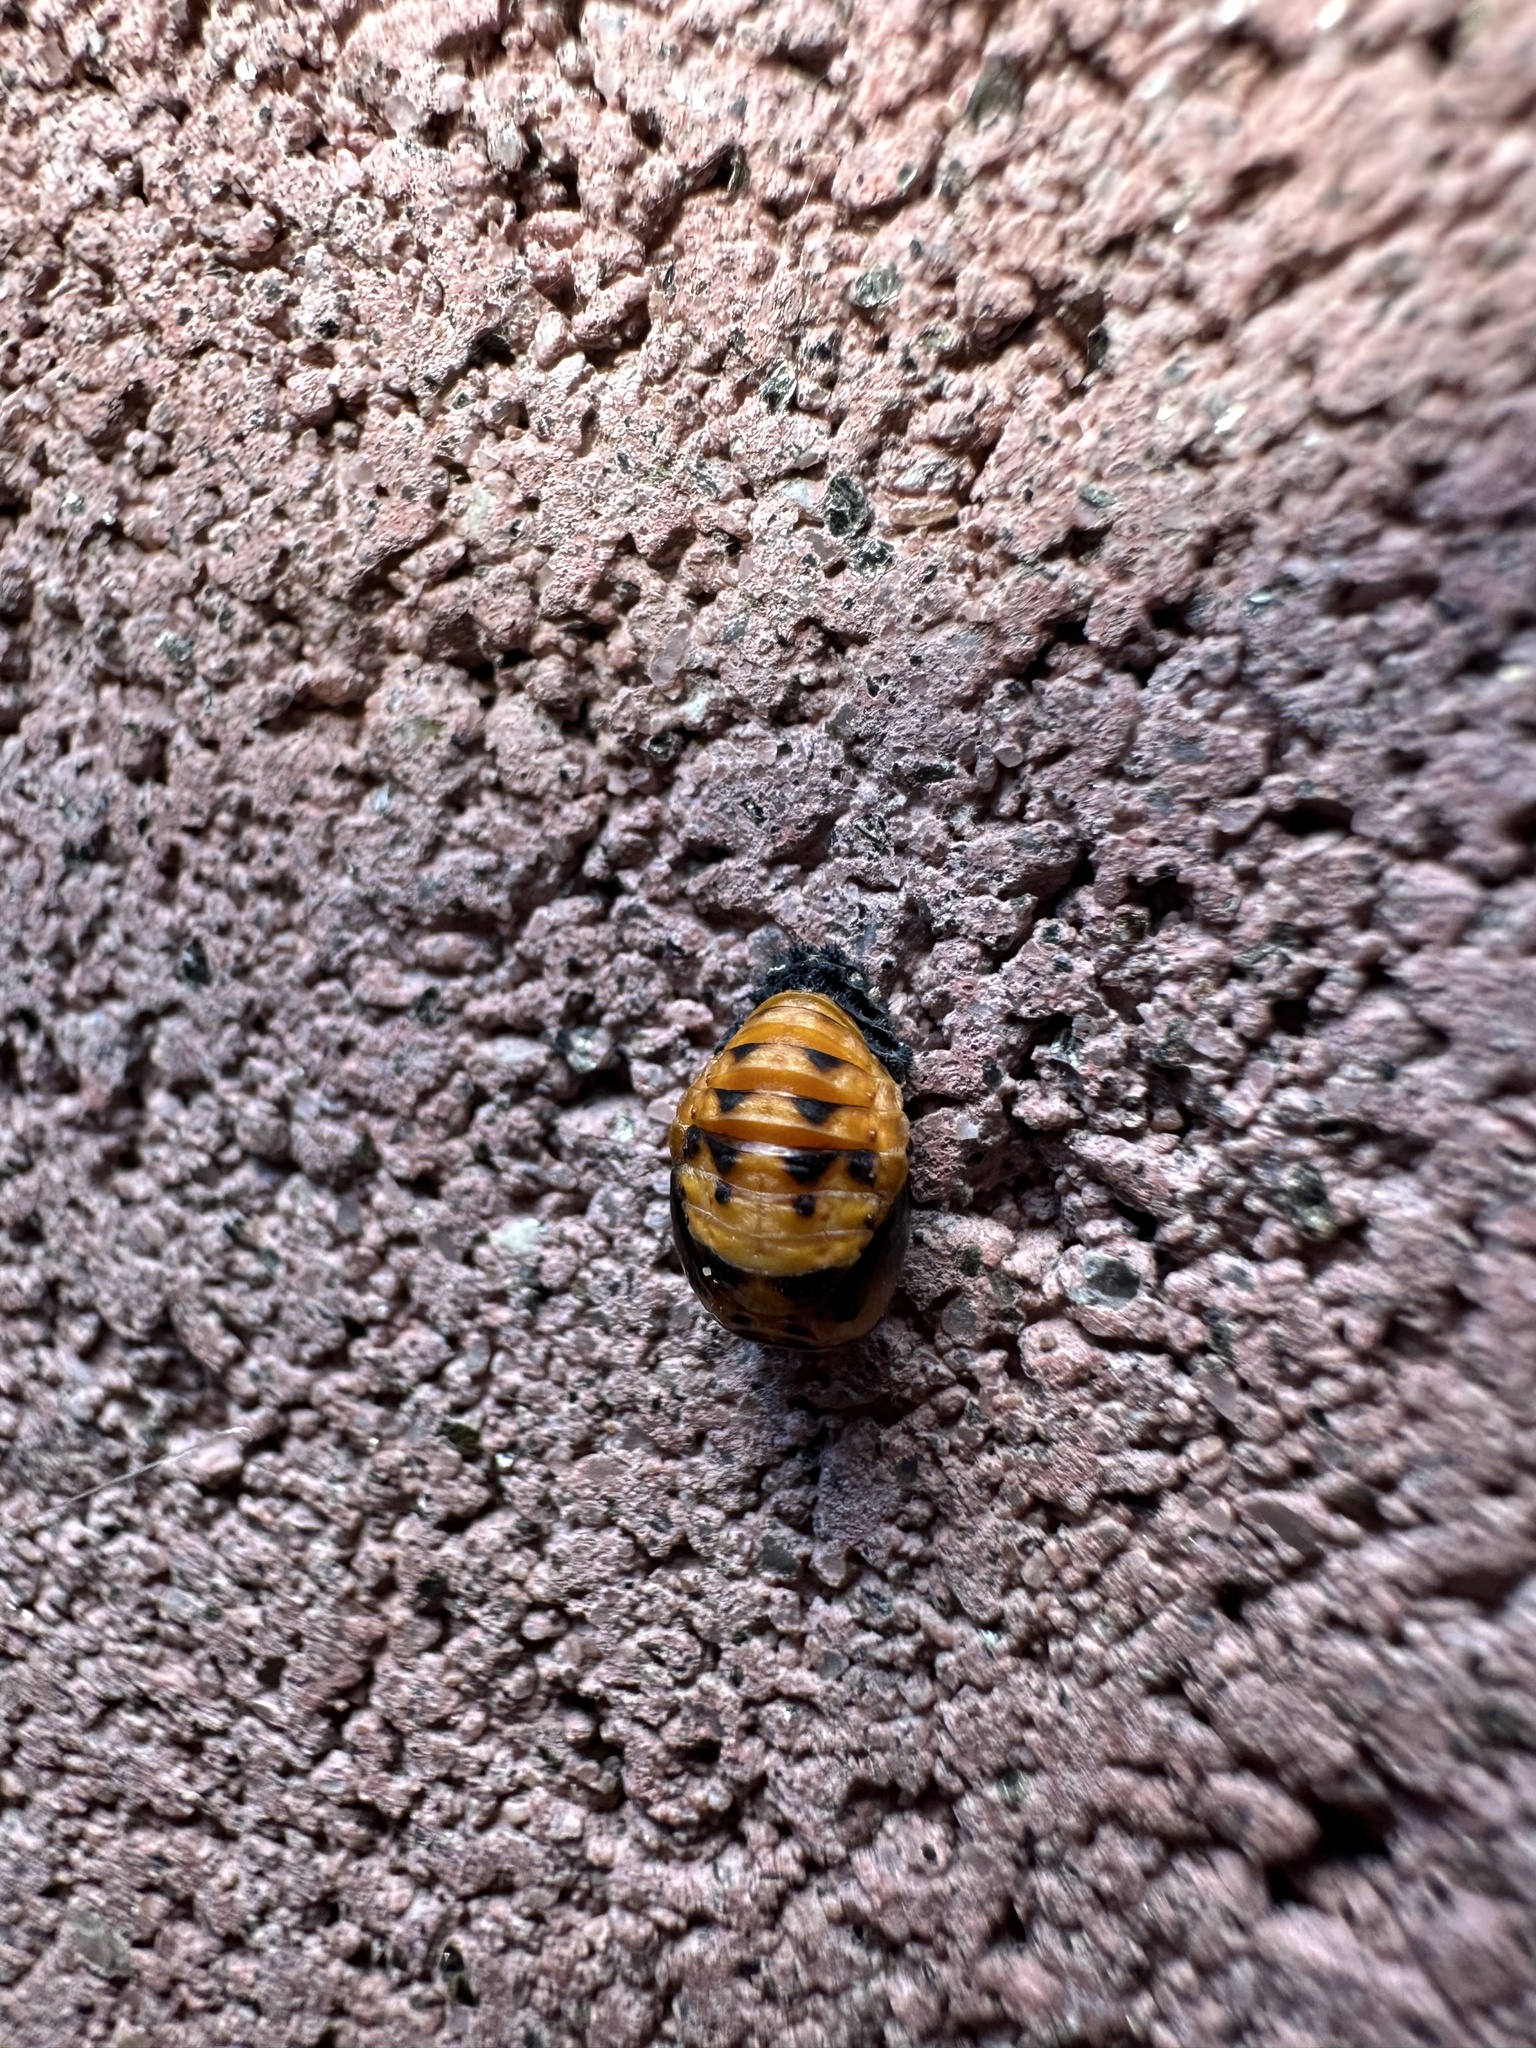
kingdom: Animalia
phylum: Arthropoda
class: Insecta
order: Coleoptera
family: Coccinellidae
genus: Hippodamia
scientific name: Hippodamia convergens
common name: Convergent lady beetle
